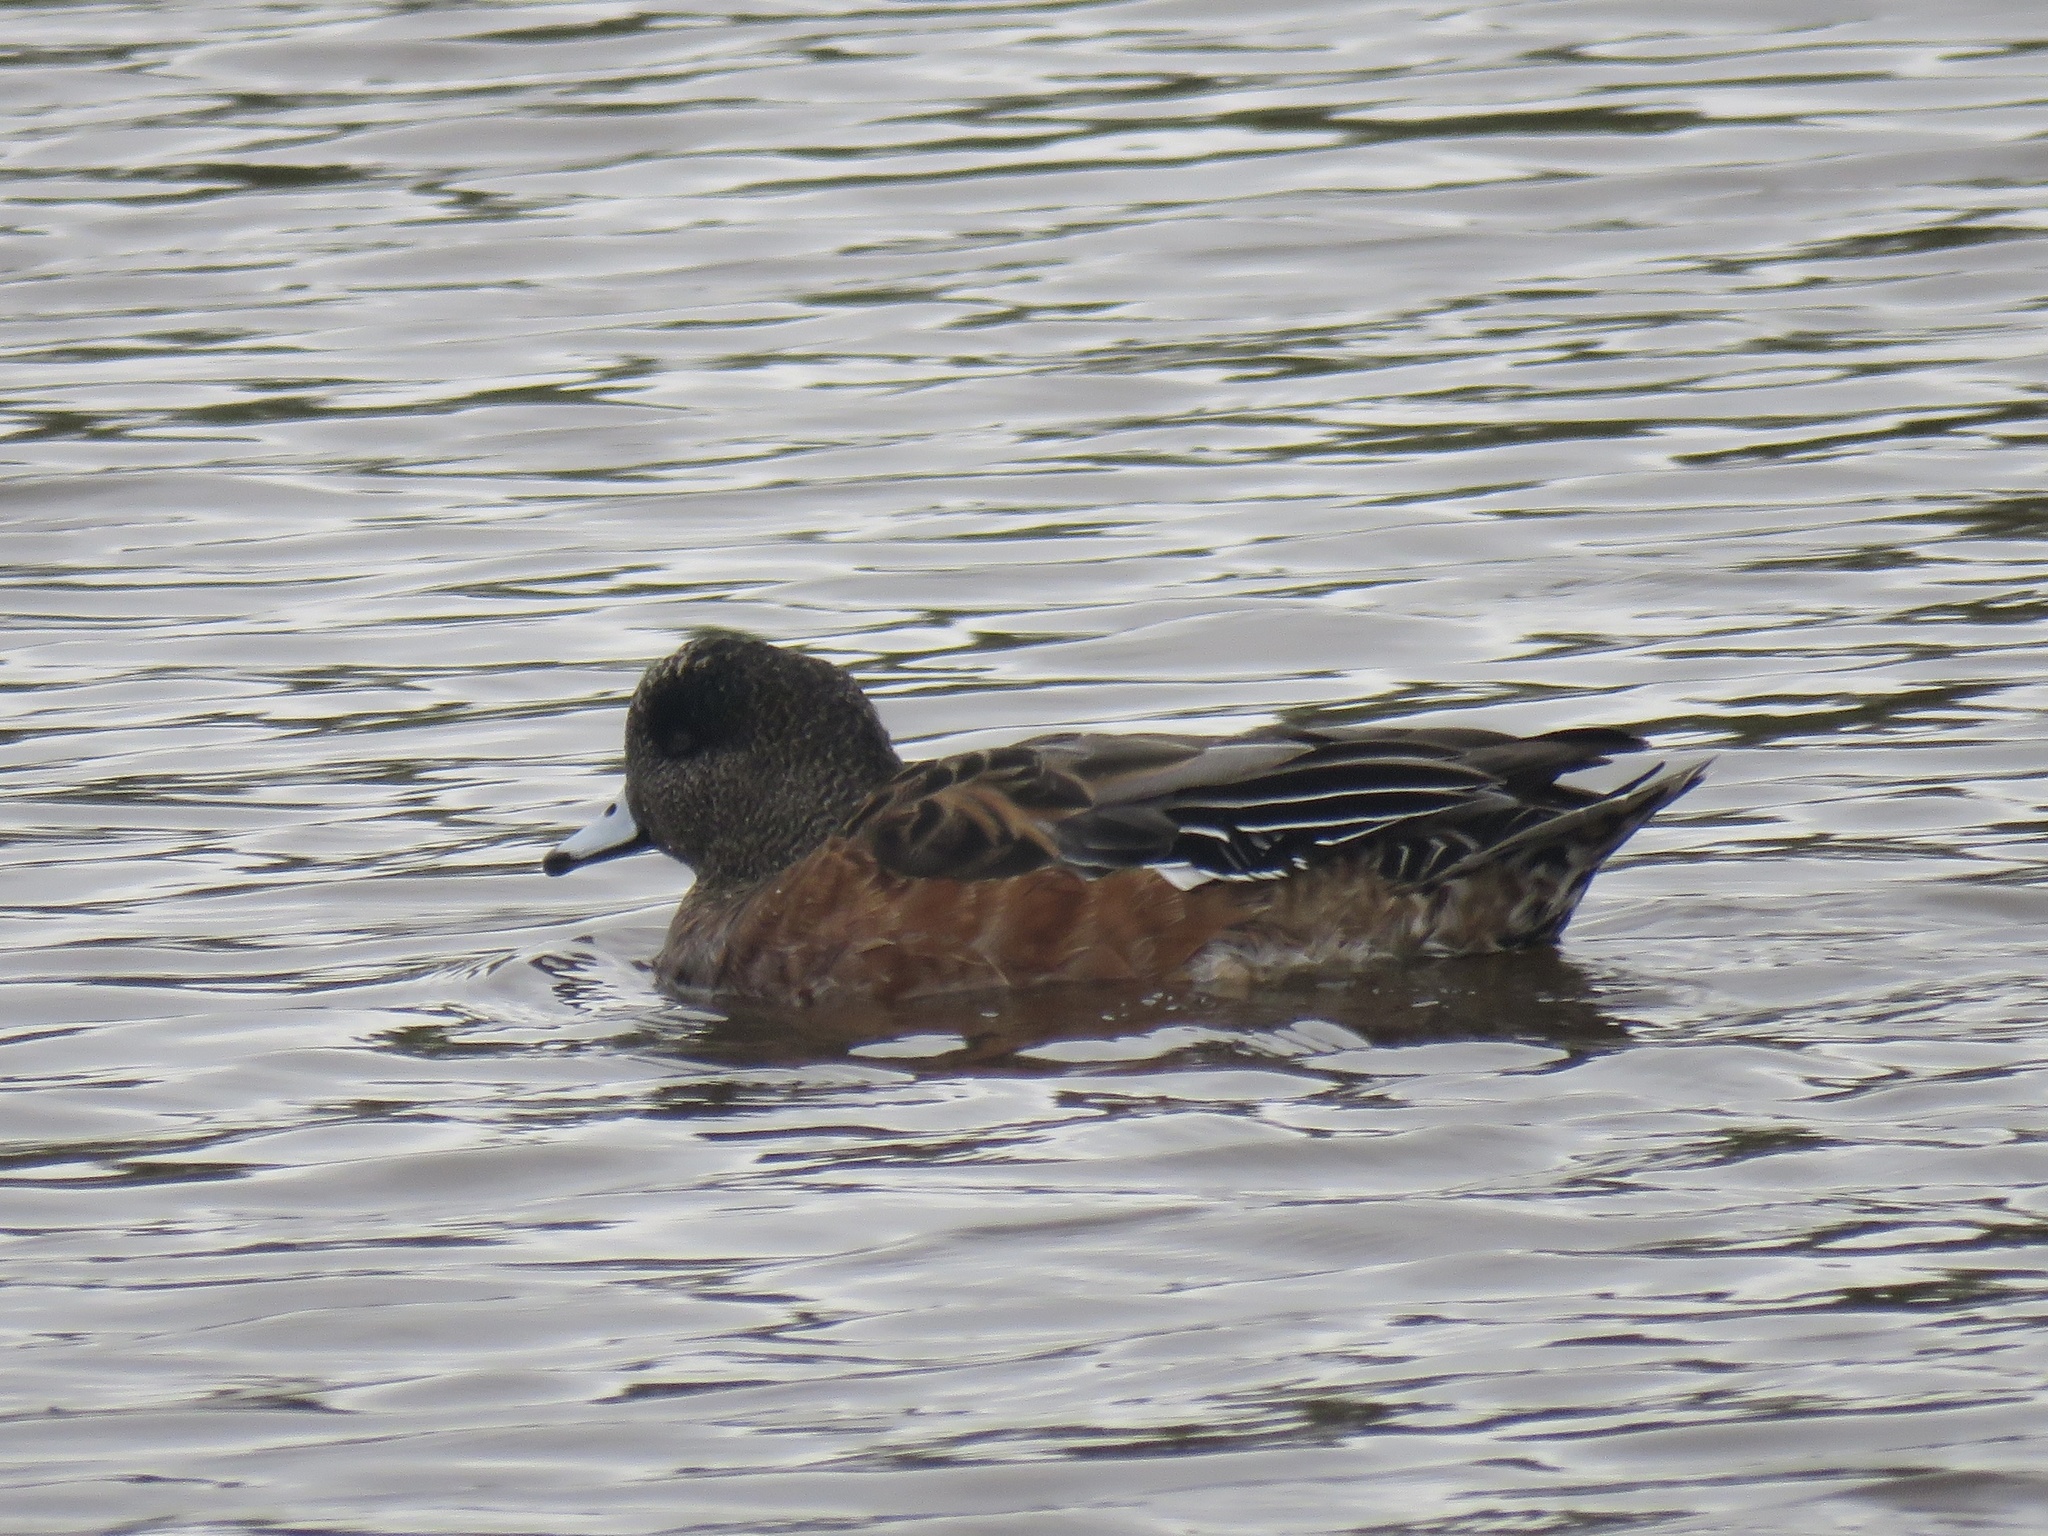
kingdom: Animalia
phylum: Chordata
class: Aves
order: Anseriformes
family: Anatidae
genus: Mareca
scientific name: Mareca americana
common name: American wigeon
